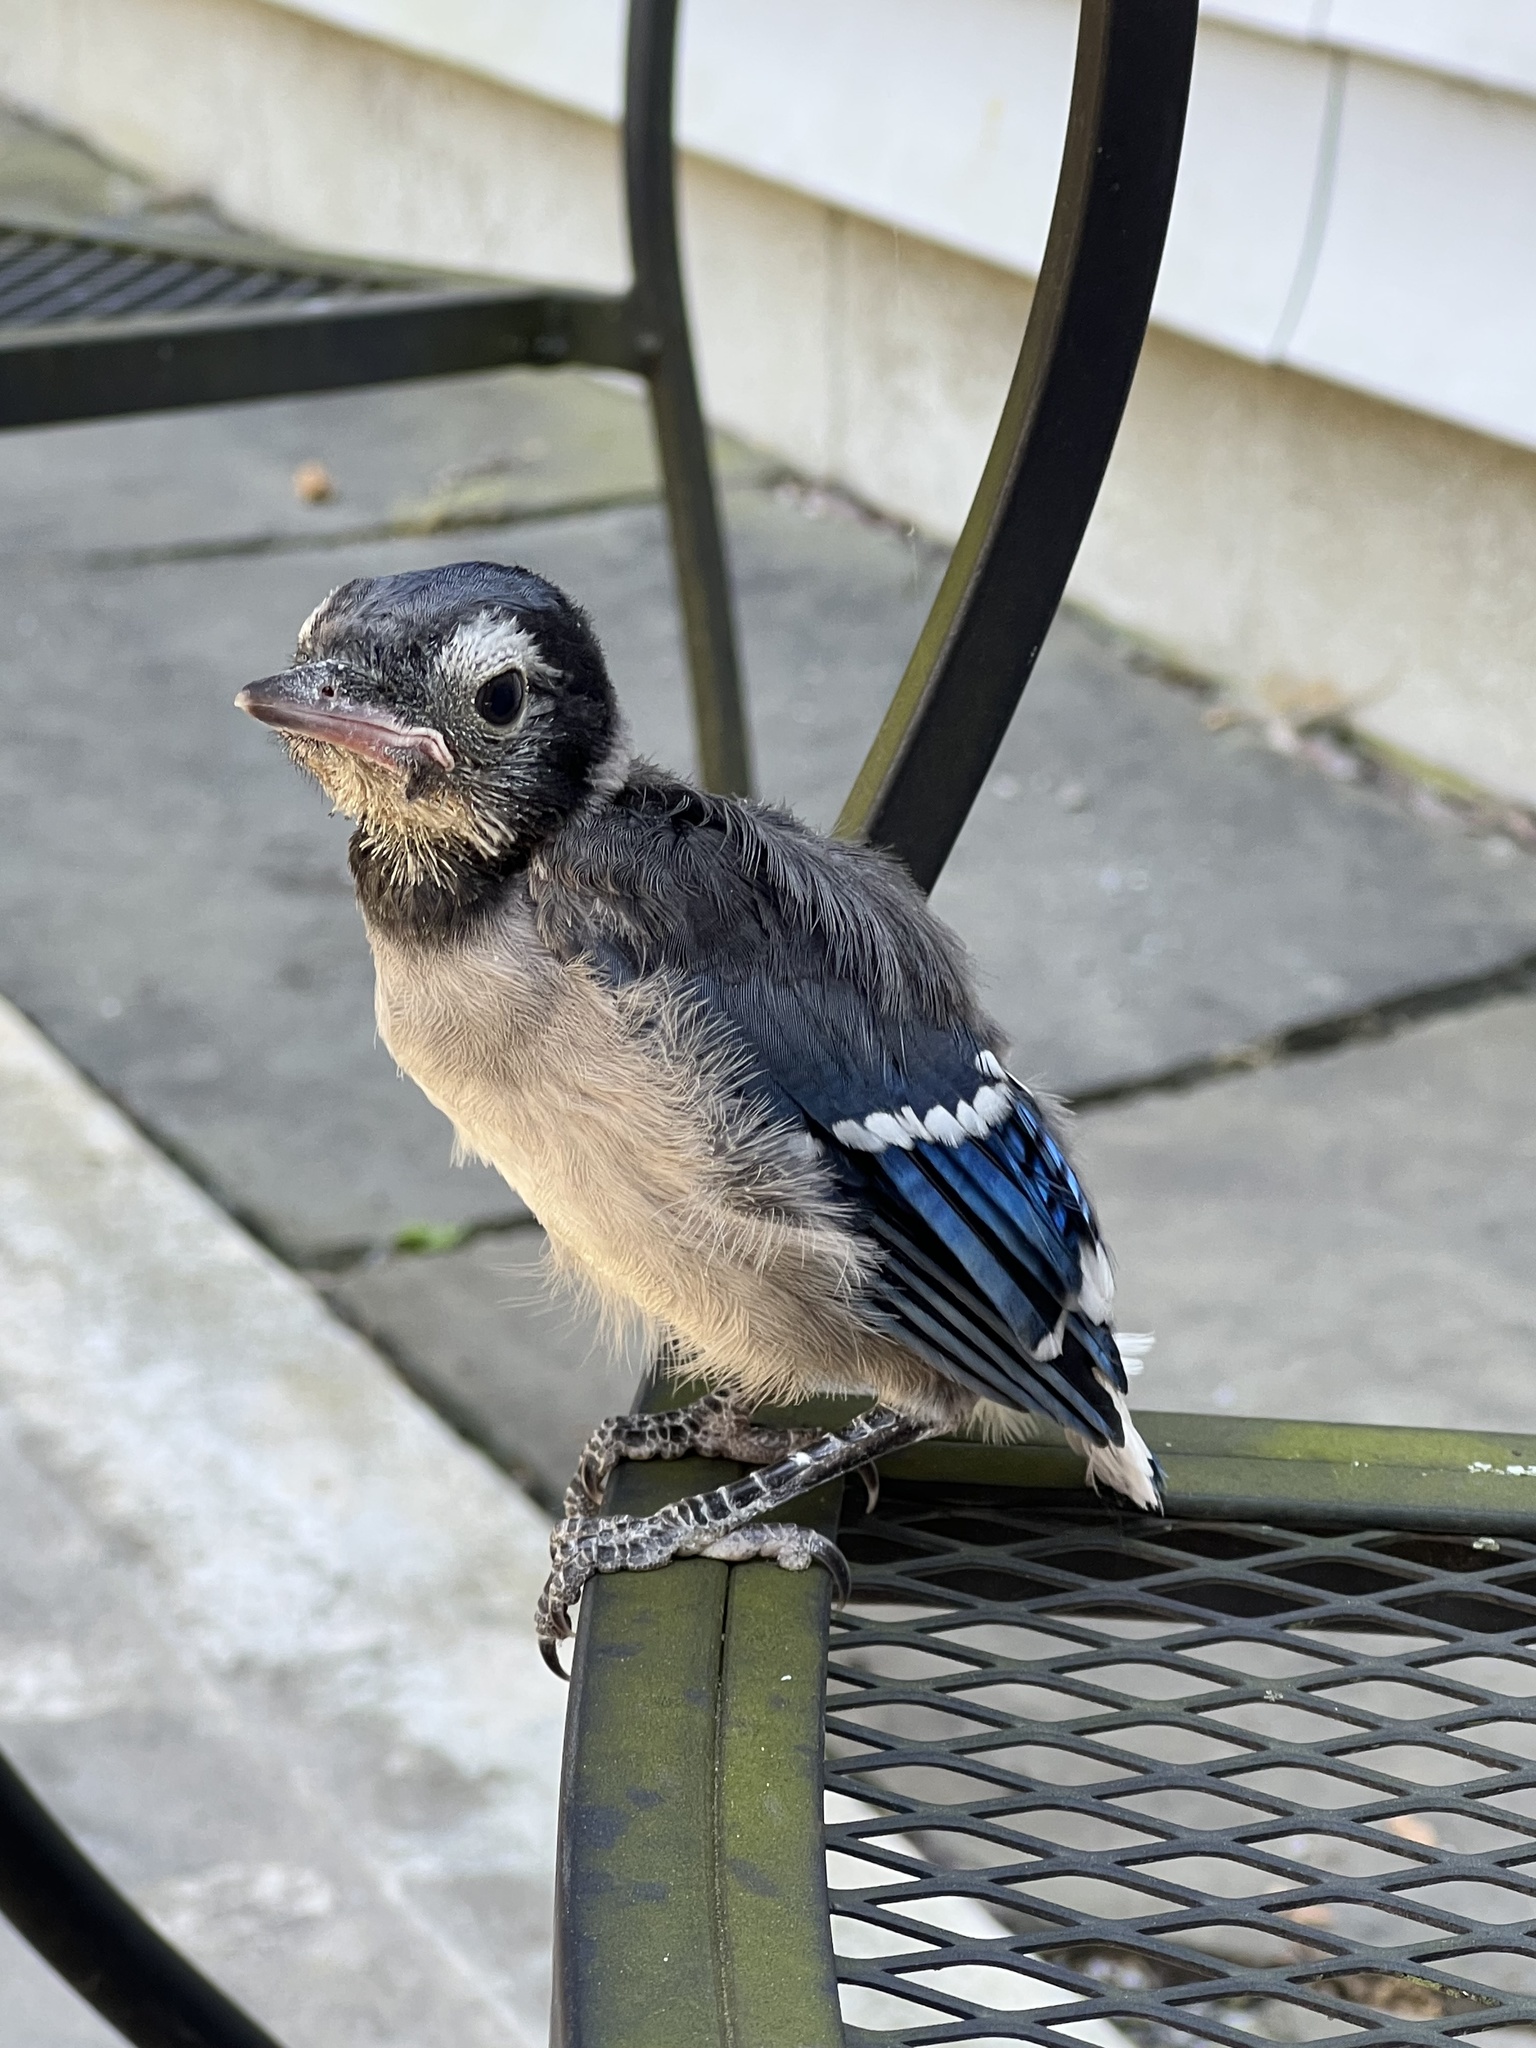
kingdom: Animalia
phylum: Chordata
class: Aves
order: Passeriformes
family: Corvidae
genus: Cyanocitta
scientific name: Cyanocitta cristata
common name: Blue jay
